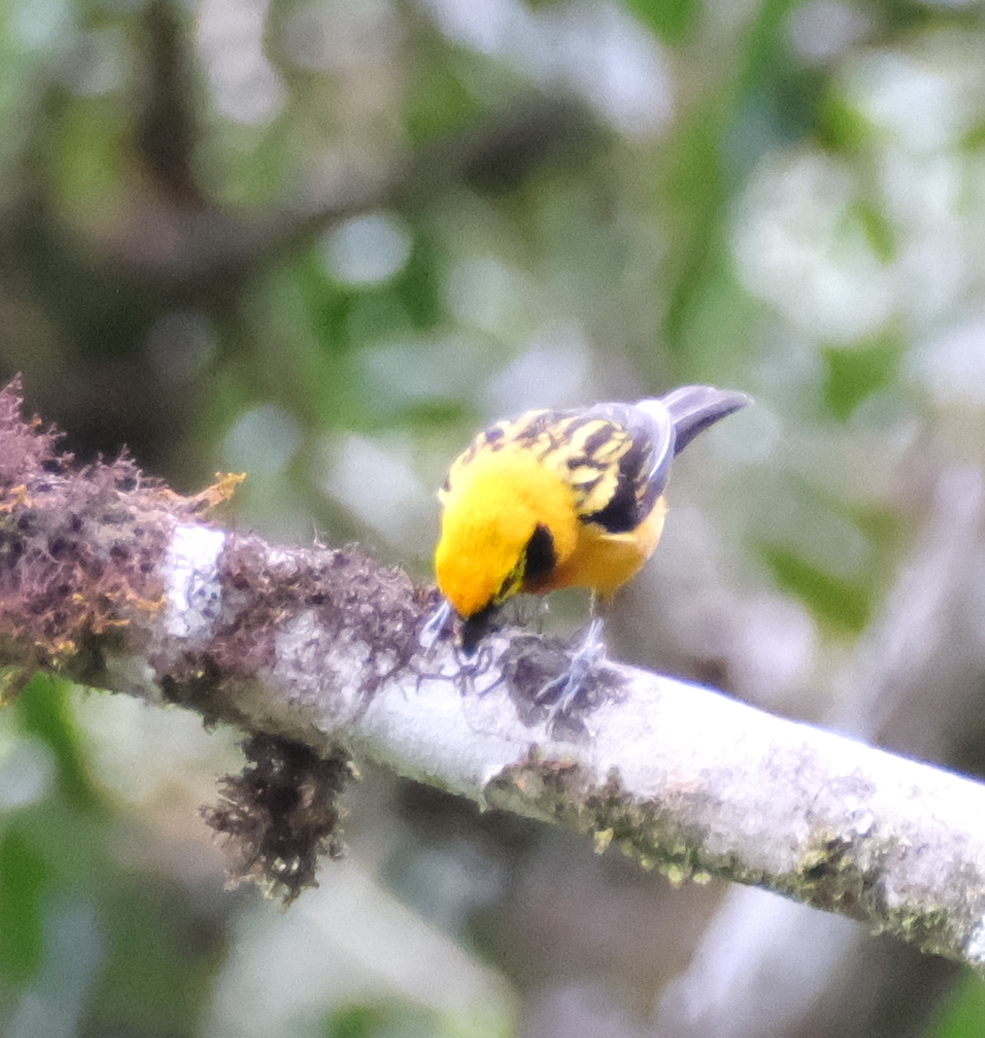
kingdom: Animalia
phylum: Chordata
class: Aves
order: Passeriformes
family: Thraupidae
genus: Tangara
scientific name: Tangara arthus
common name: Golden tanager
